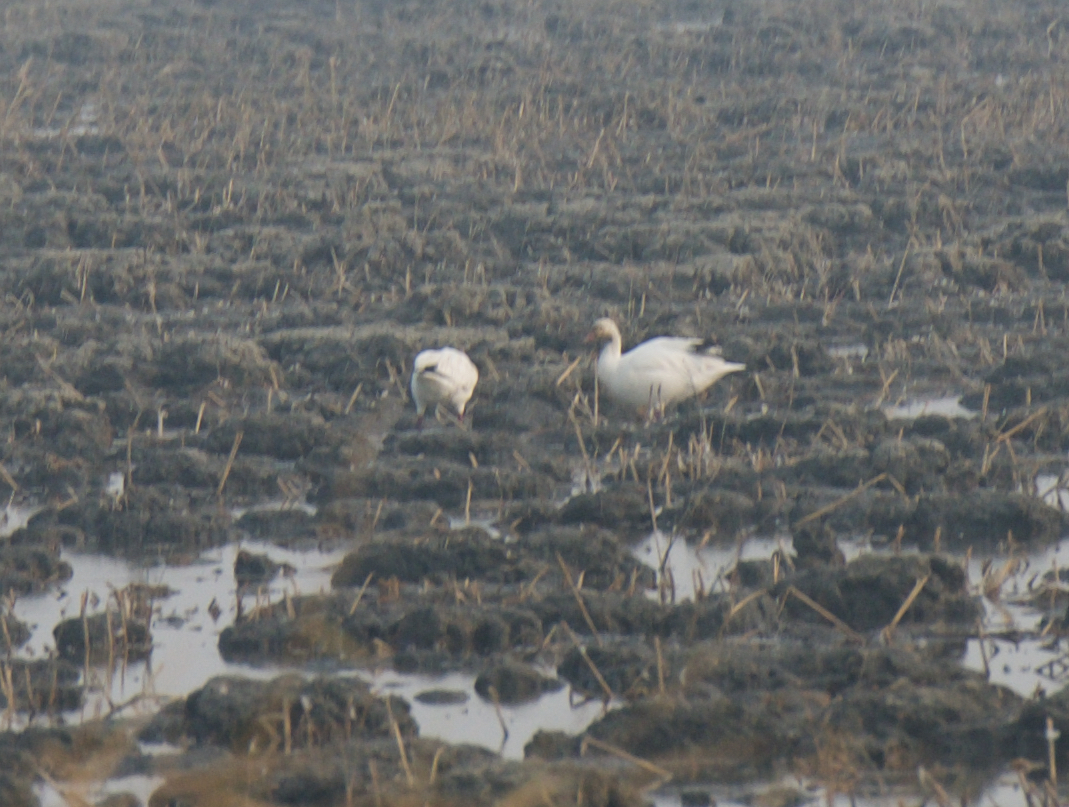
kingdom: Animalia
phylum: Chordata
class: Aves
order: Anseriformes
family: Anatidae
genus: Anser
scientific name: Anser caerulescens
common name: Snow goose
